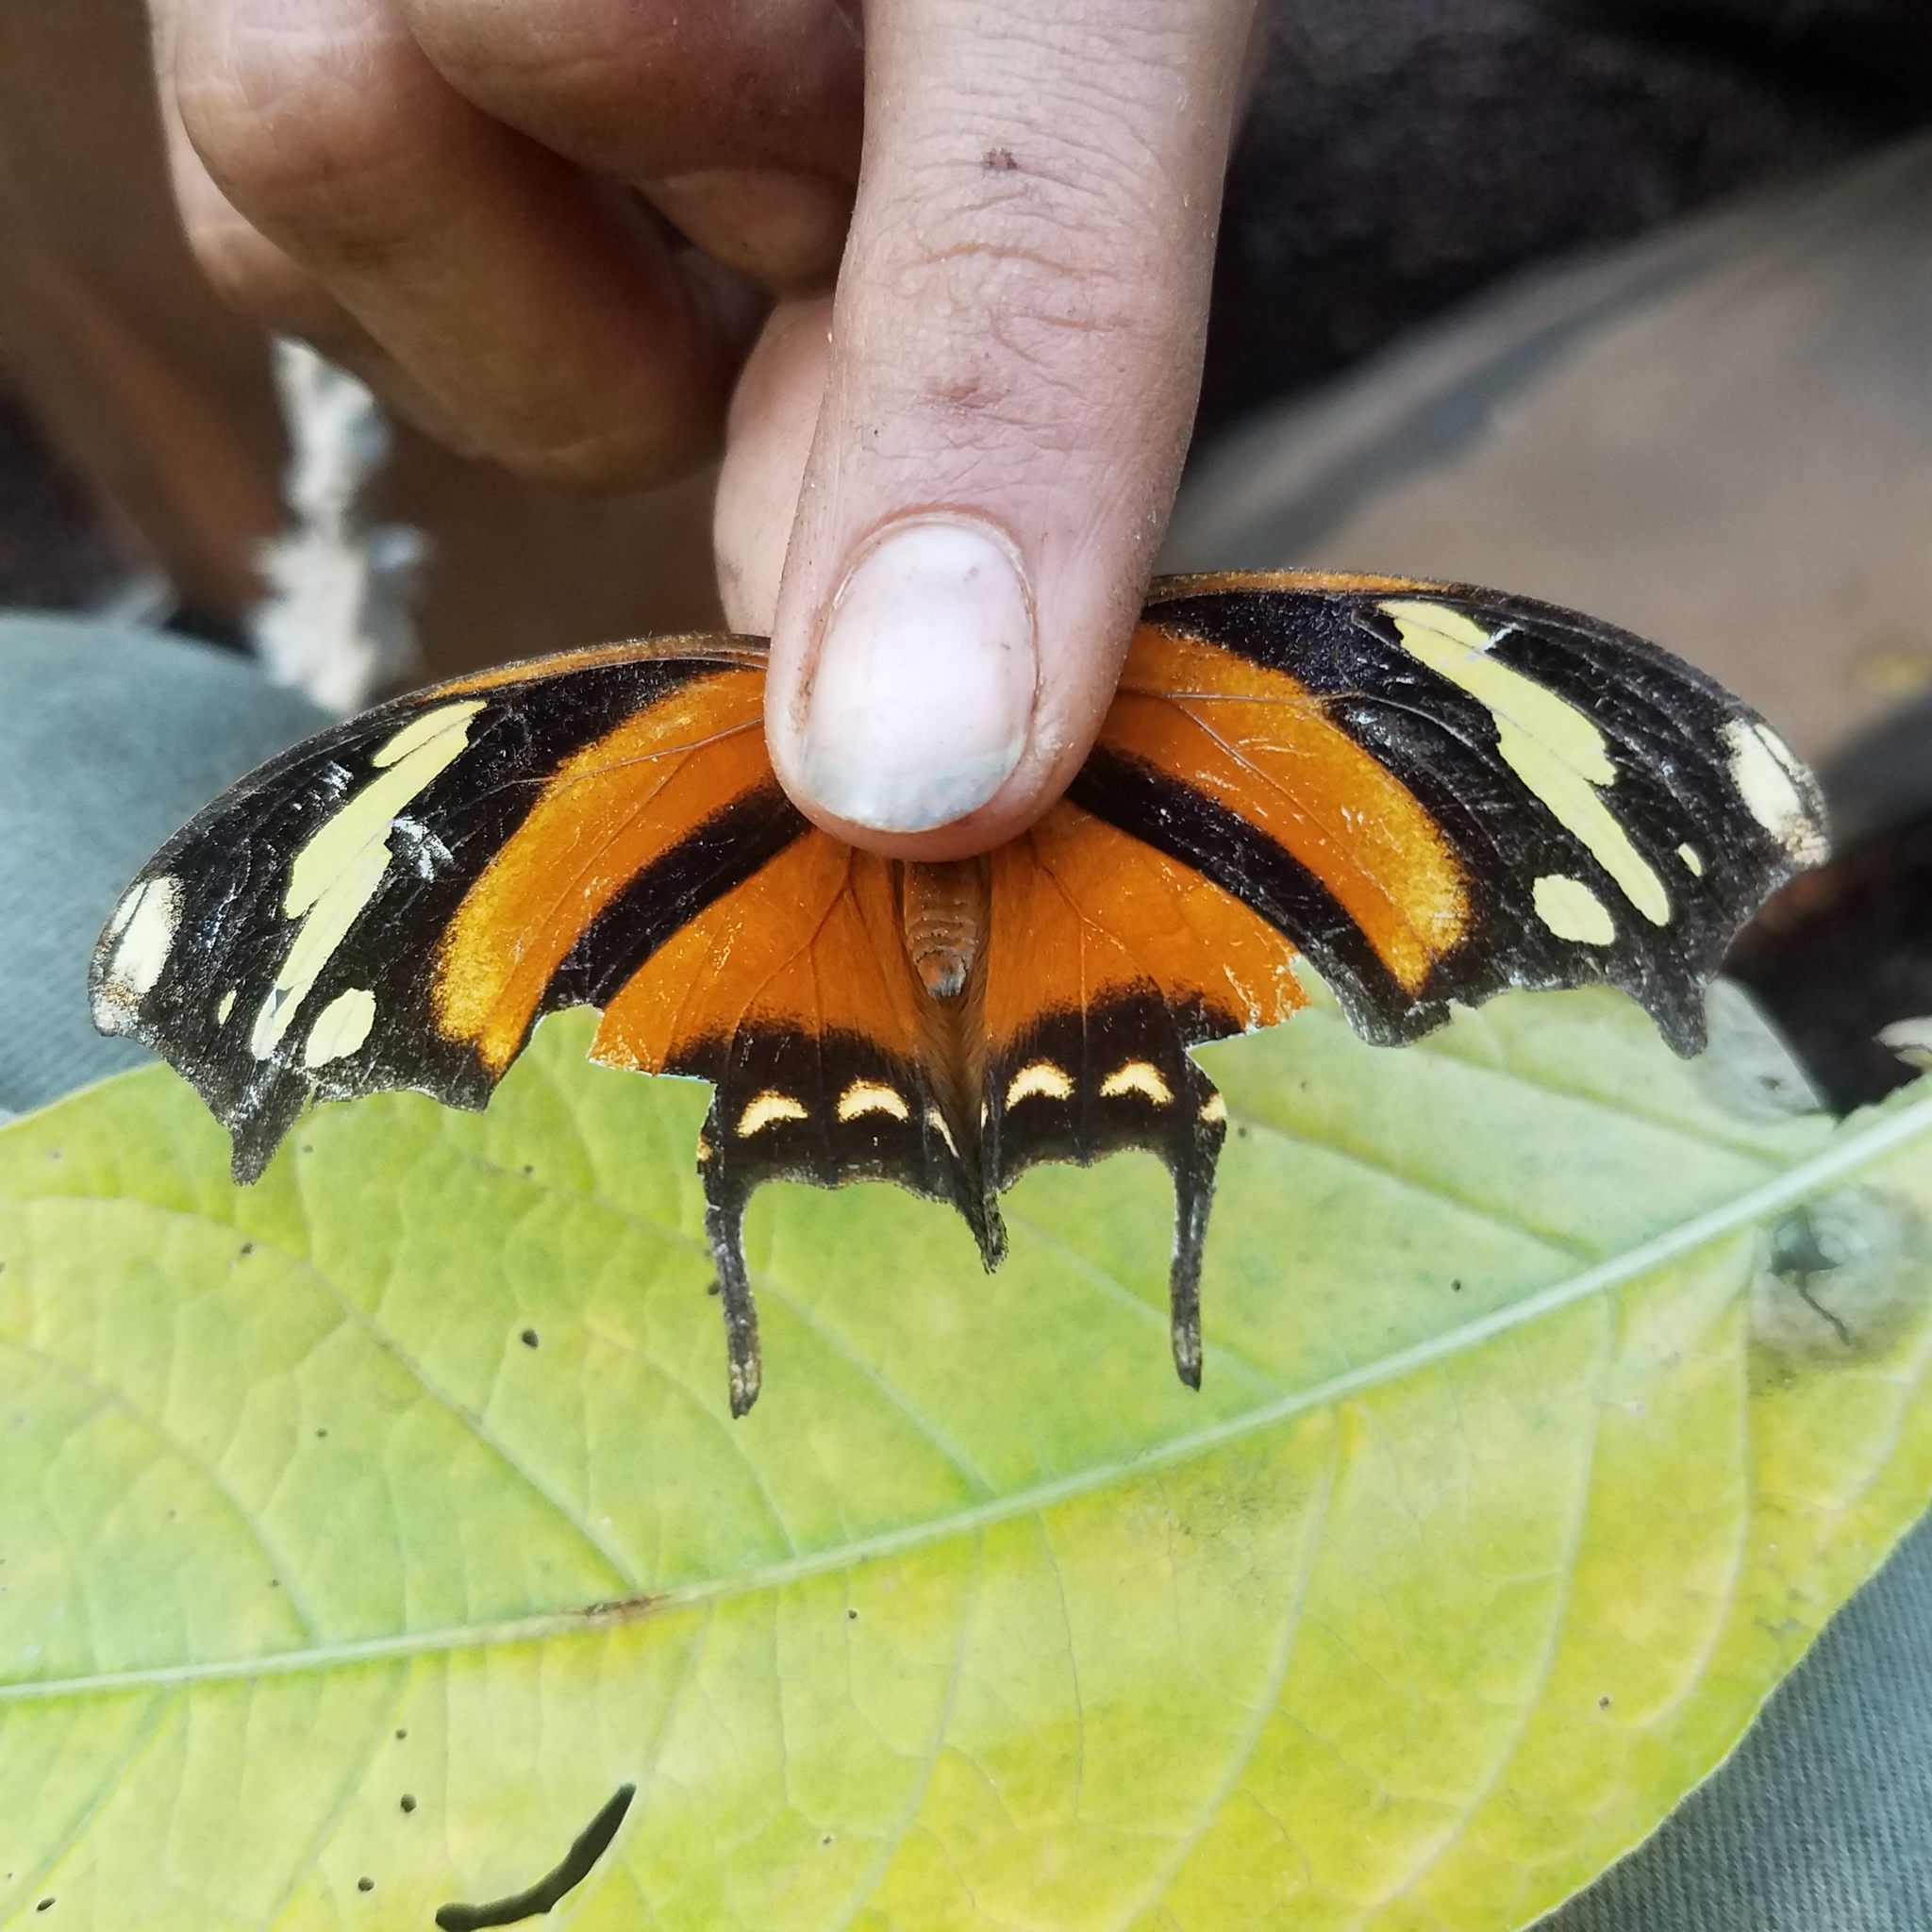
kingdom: Animalia
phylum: Arthropoda
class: Insecta
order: Lepidoptera
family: Nymphalidae
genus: Consul
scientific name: Consul fabius
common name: Tiger leafwing
